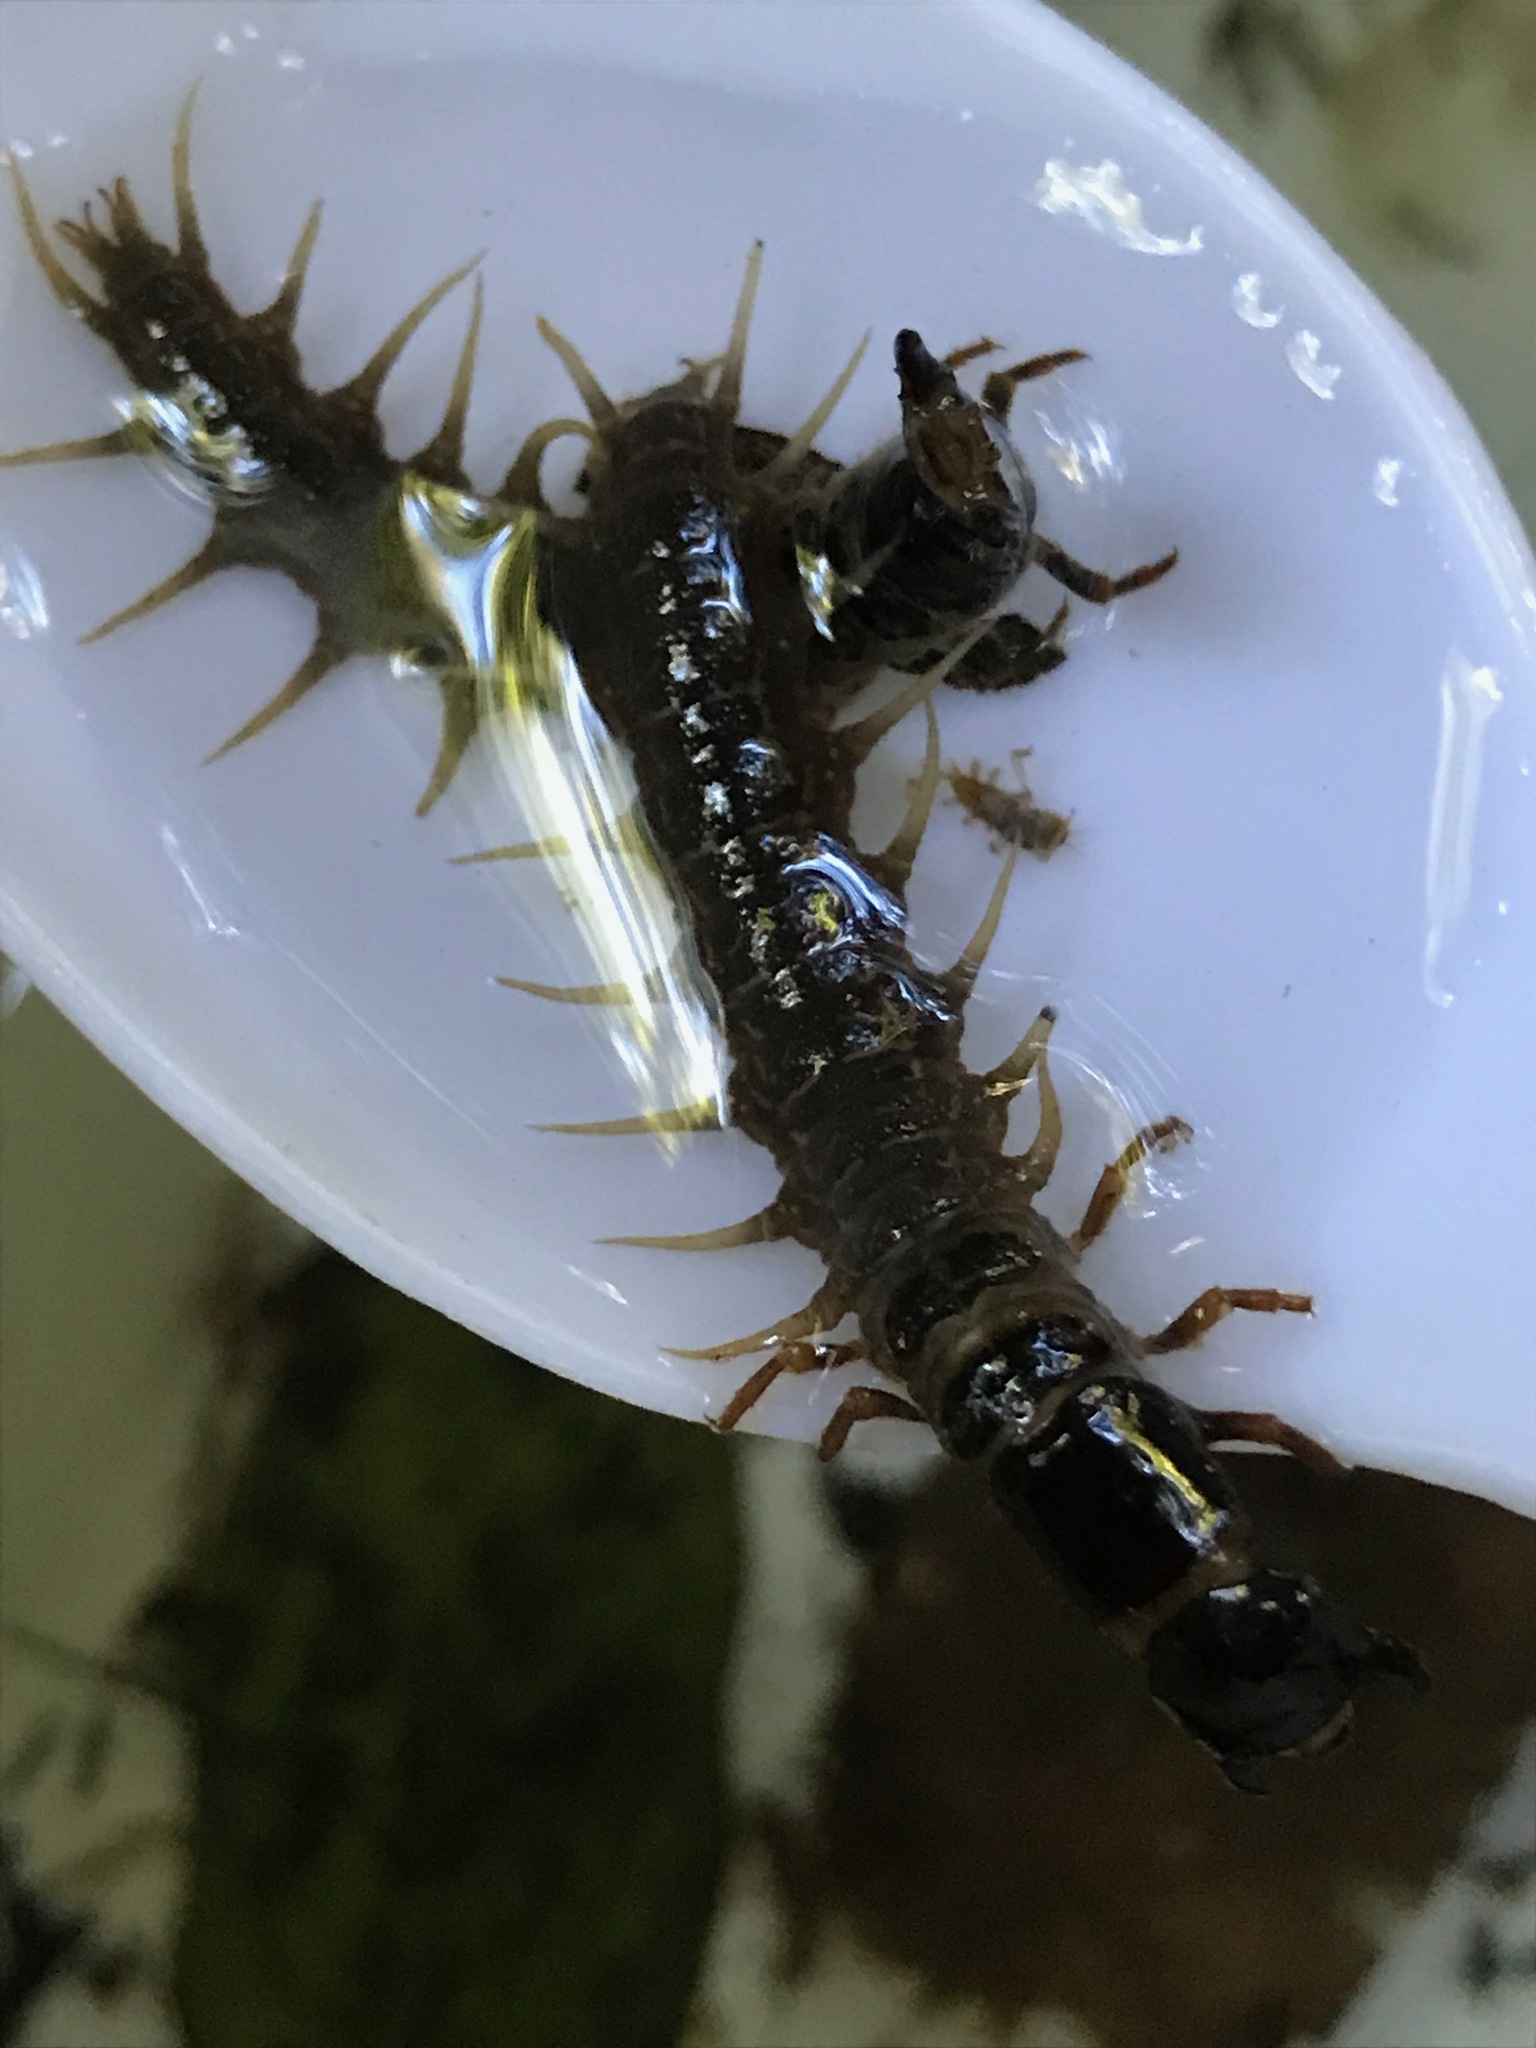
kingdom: Animalia
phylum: Arthropoda
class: Insecta
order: Megaloptera
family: Corydalidae
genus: Archichauliodes
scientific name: Archichauliodes diversus
